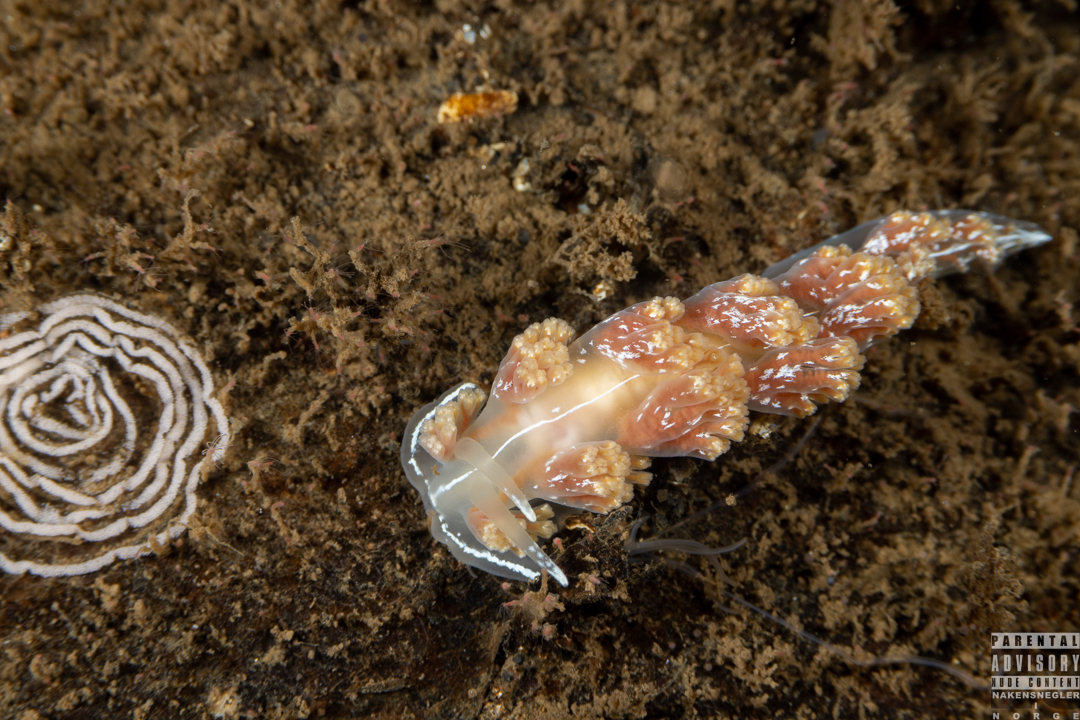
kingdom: Animalia
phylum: Mollusca
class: Gastropoda
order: Nudibranchia
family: Heroidae
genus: Hero
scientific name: Hero formosa
